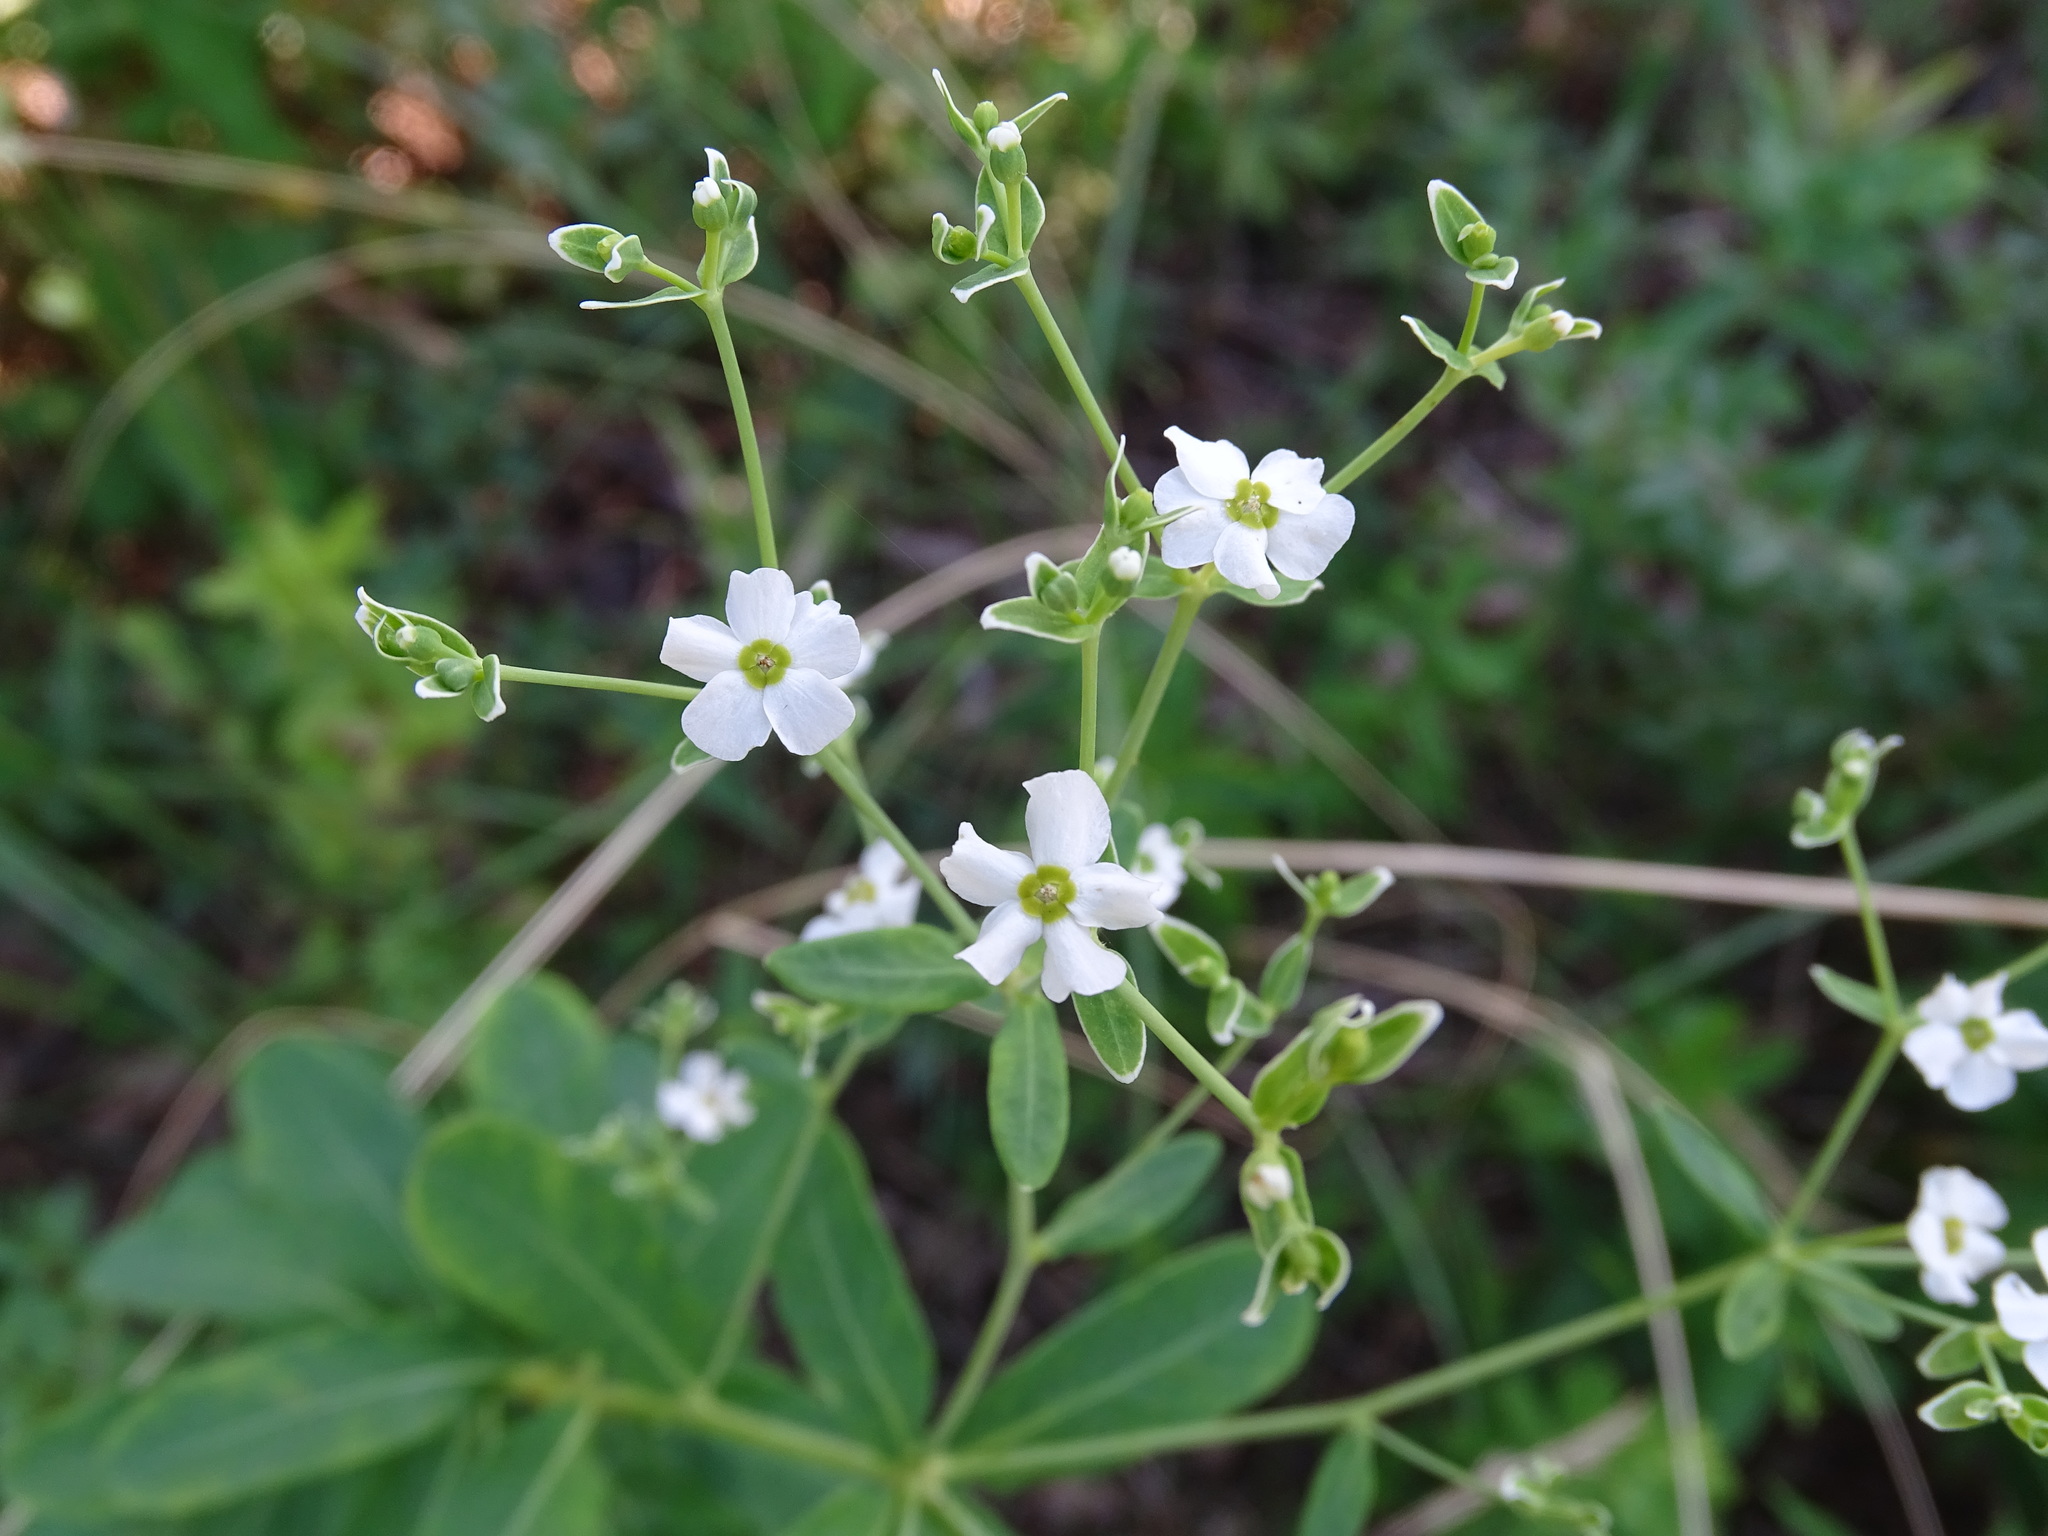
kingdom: Plantae
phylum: Tracheophyta
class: Magnoliopsida
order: Malpighiales
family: Euphorbiaceae
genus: Euphorbia
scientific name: Euphorbia corollata
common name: Flowering spurge
